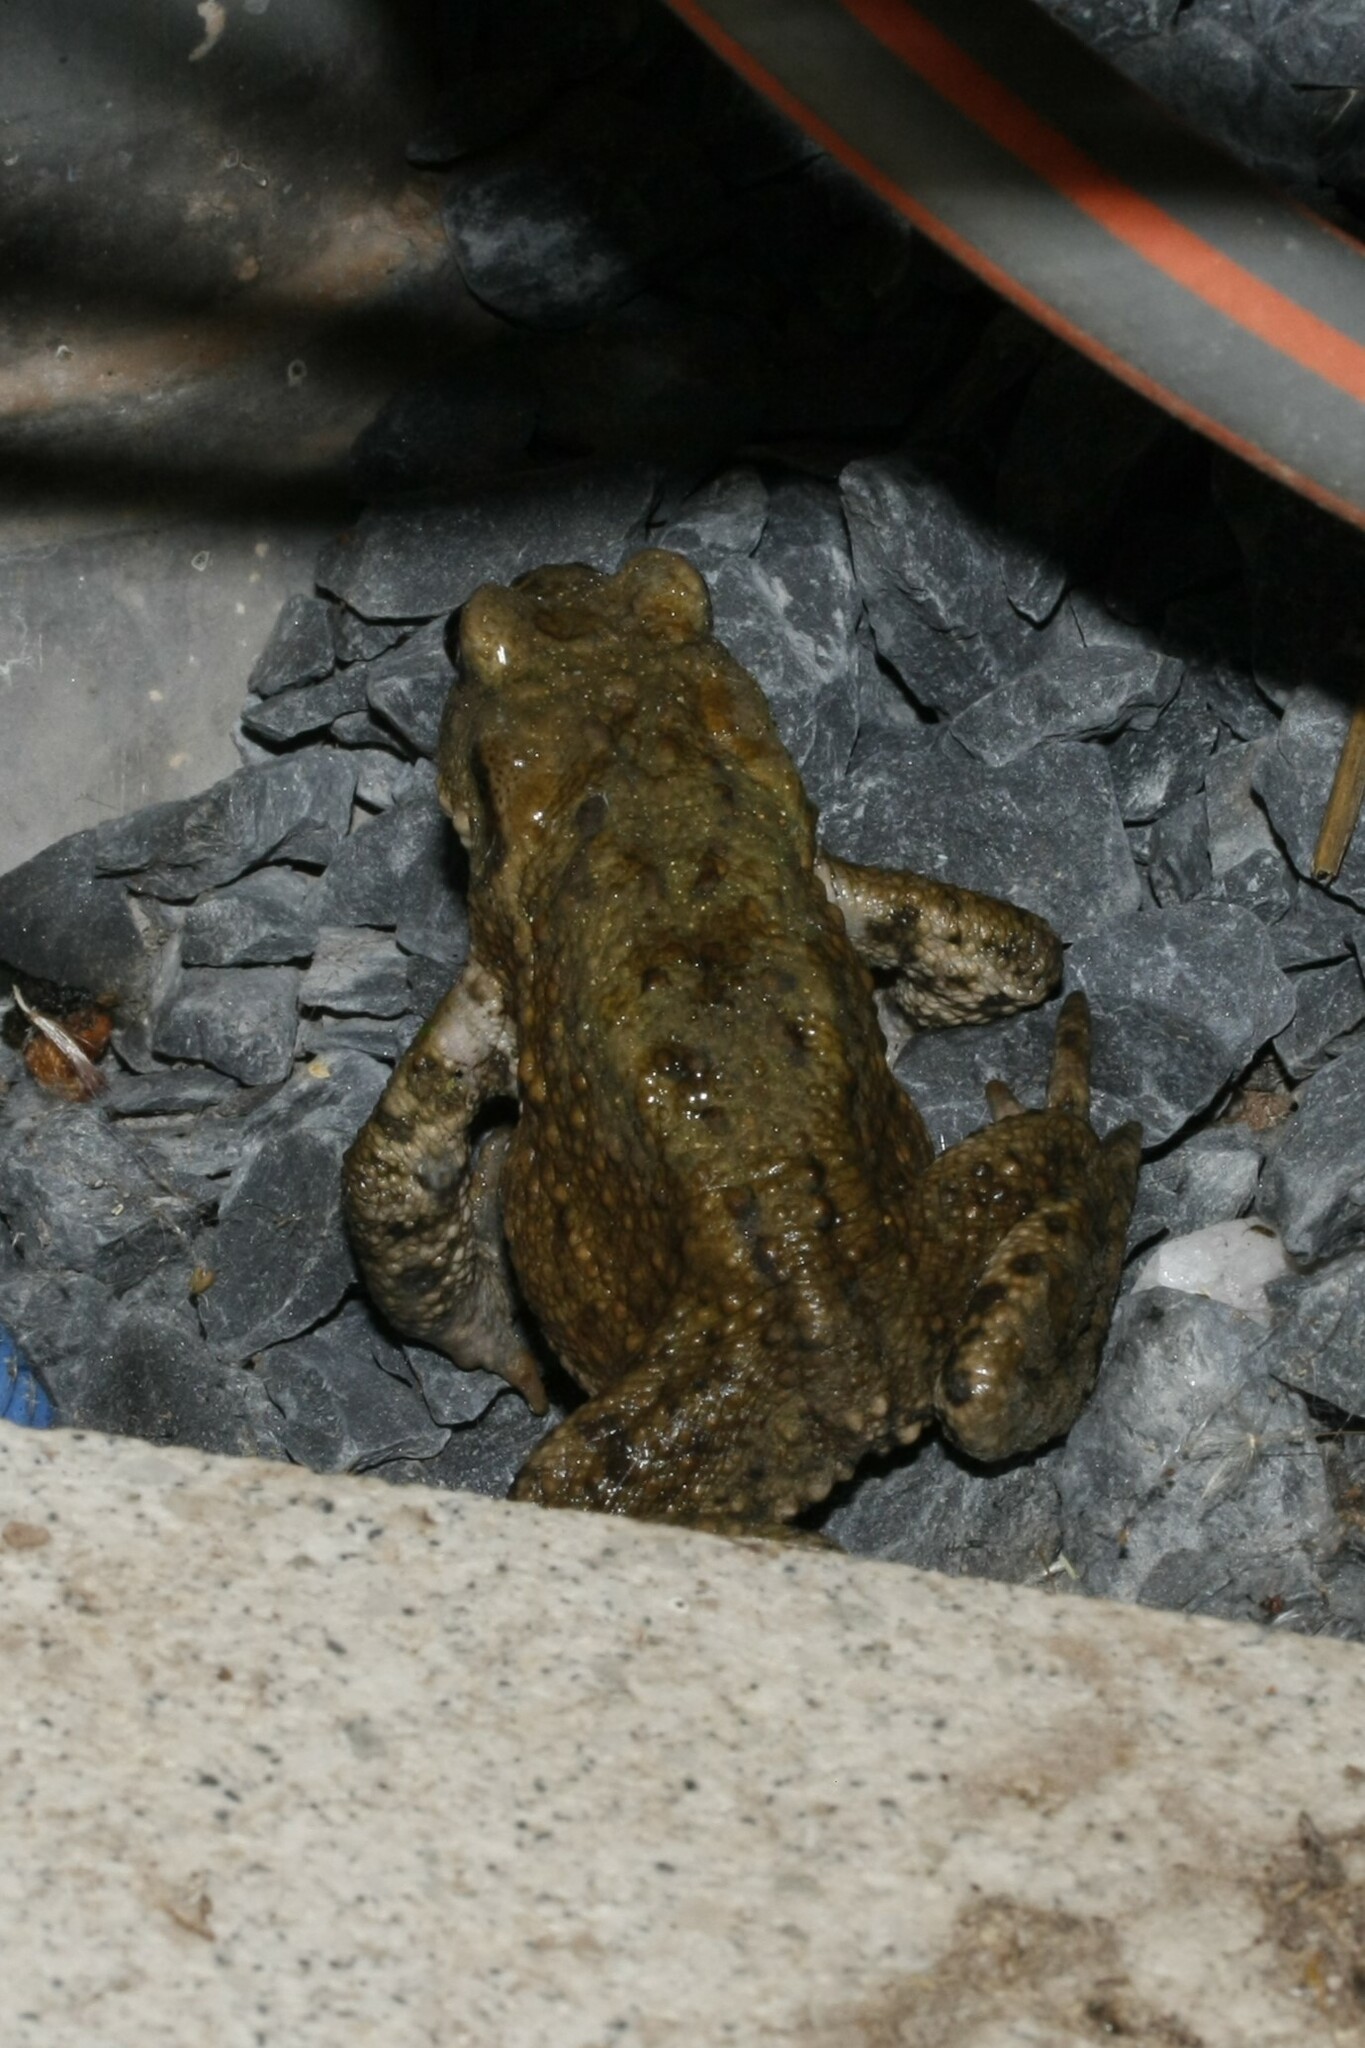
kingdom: Animalia
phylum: Chordata
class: Amphibia
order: Anura
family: Bufonidae
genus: Bufo
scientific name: Bufo bufo
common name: Common toad
